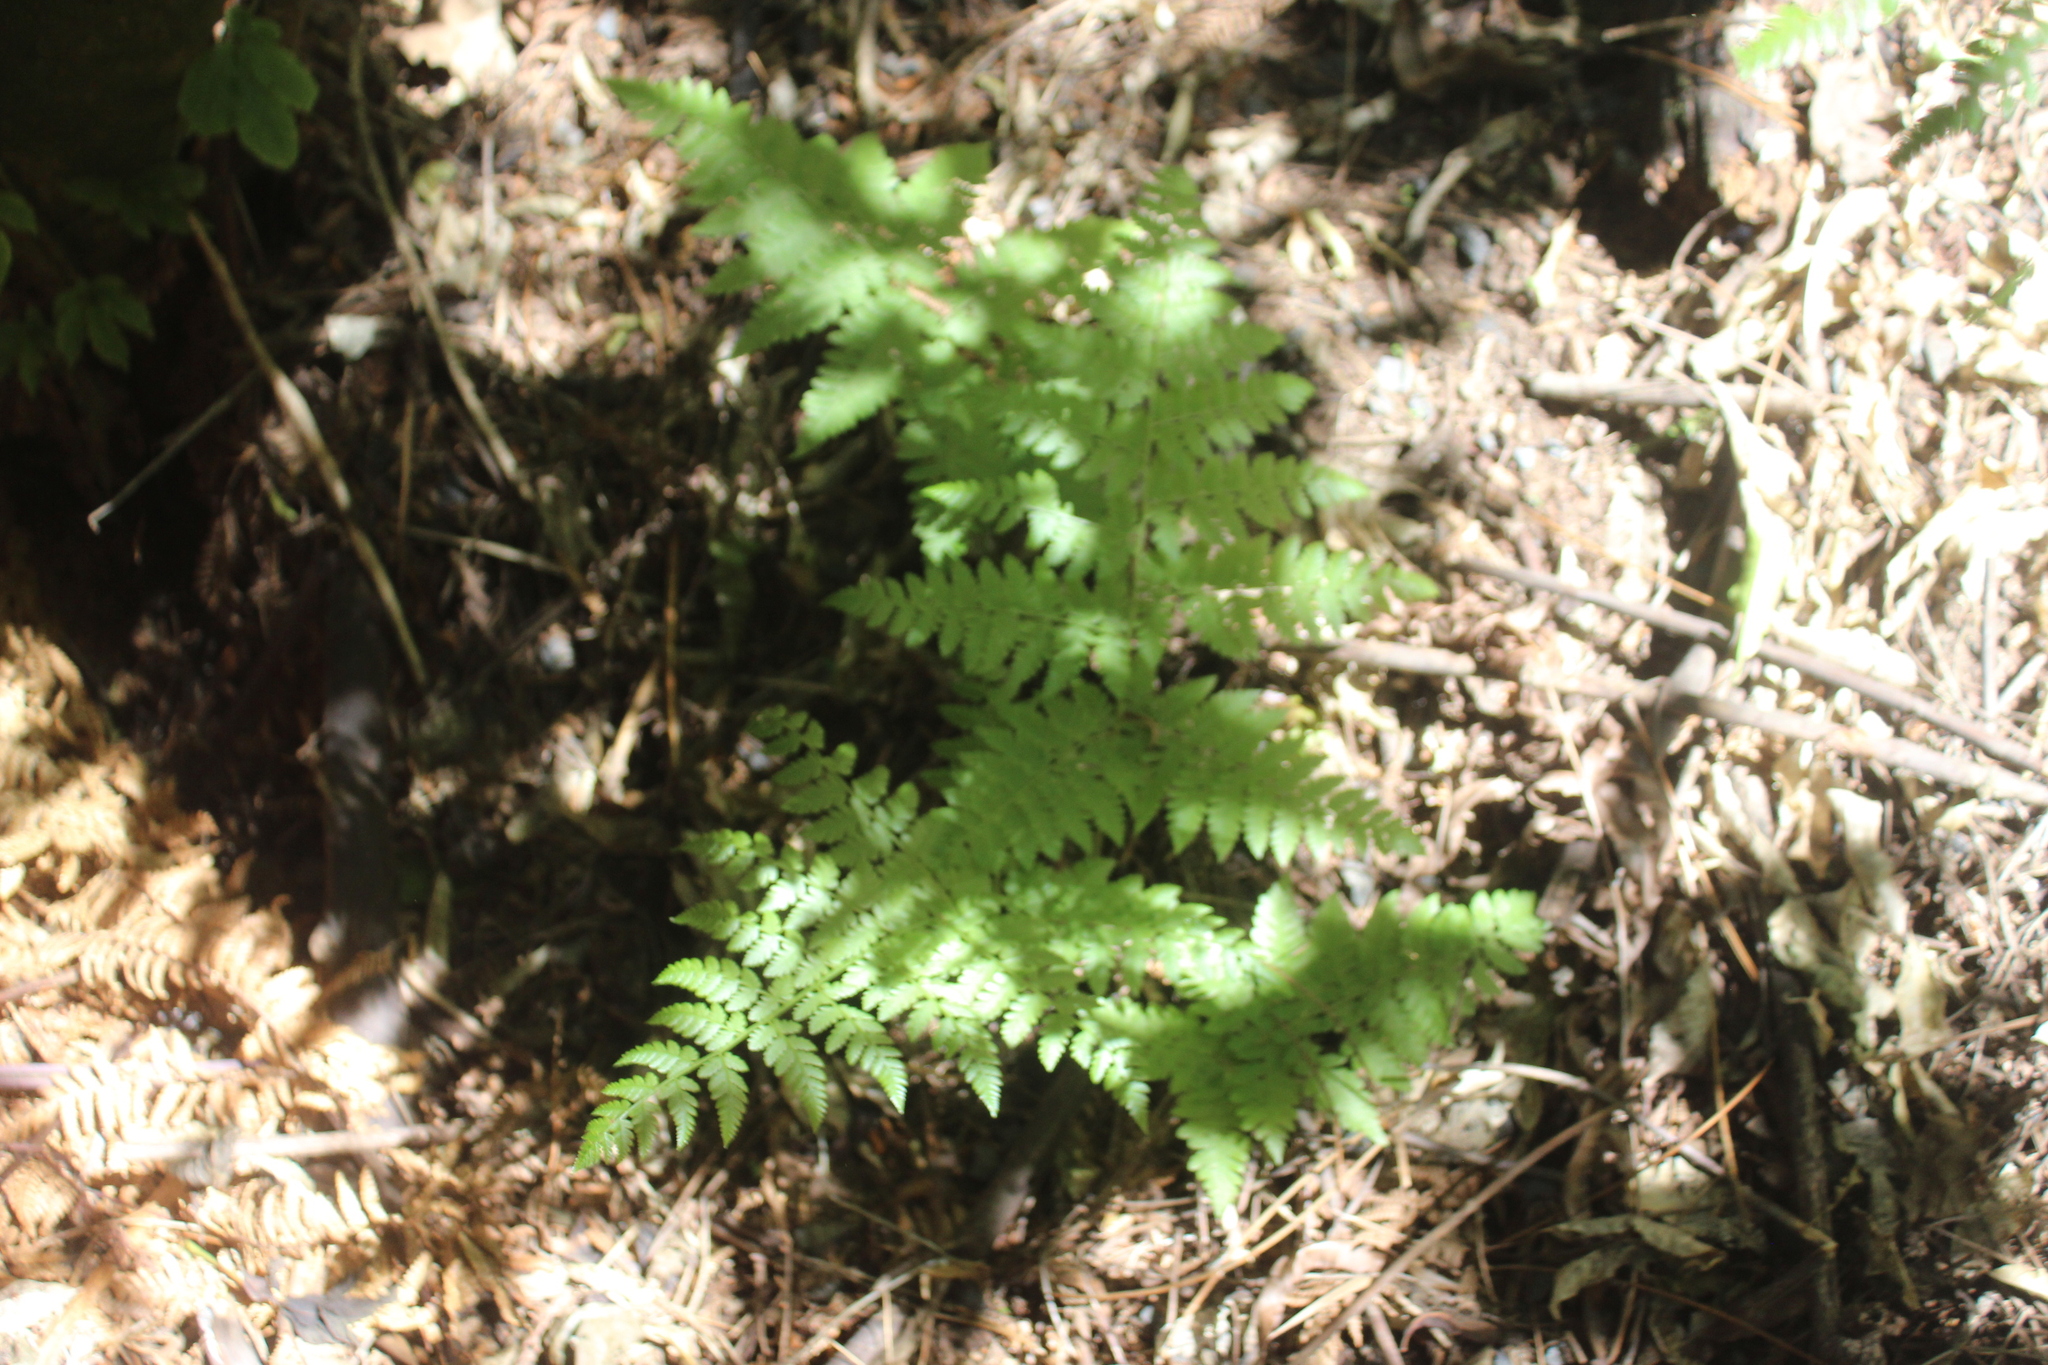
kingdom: Plantae
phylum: Tracheophyta
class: Polypodiopsida
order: Polypodiales
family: Athyriaceae
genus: Diplazium
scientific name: Diplazium australe
